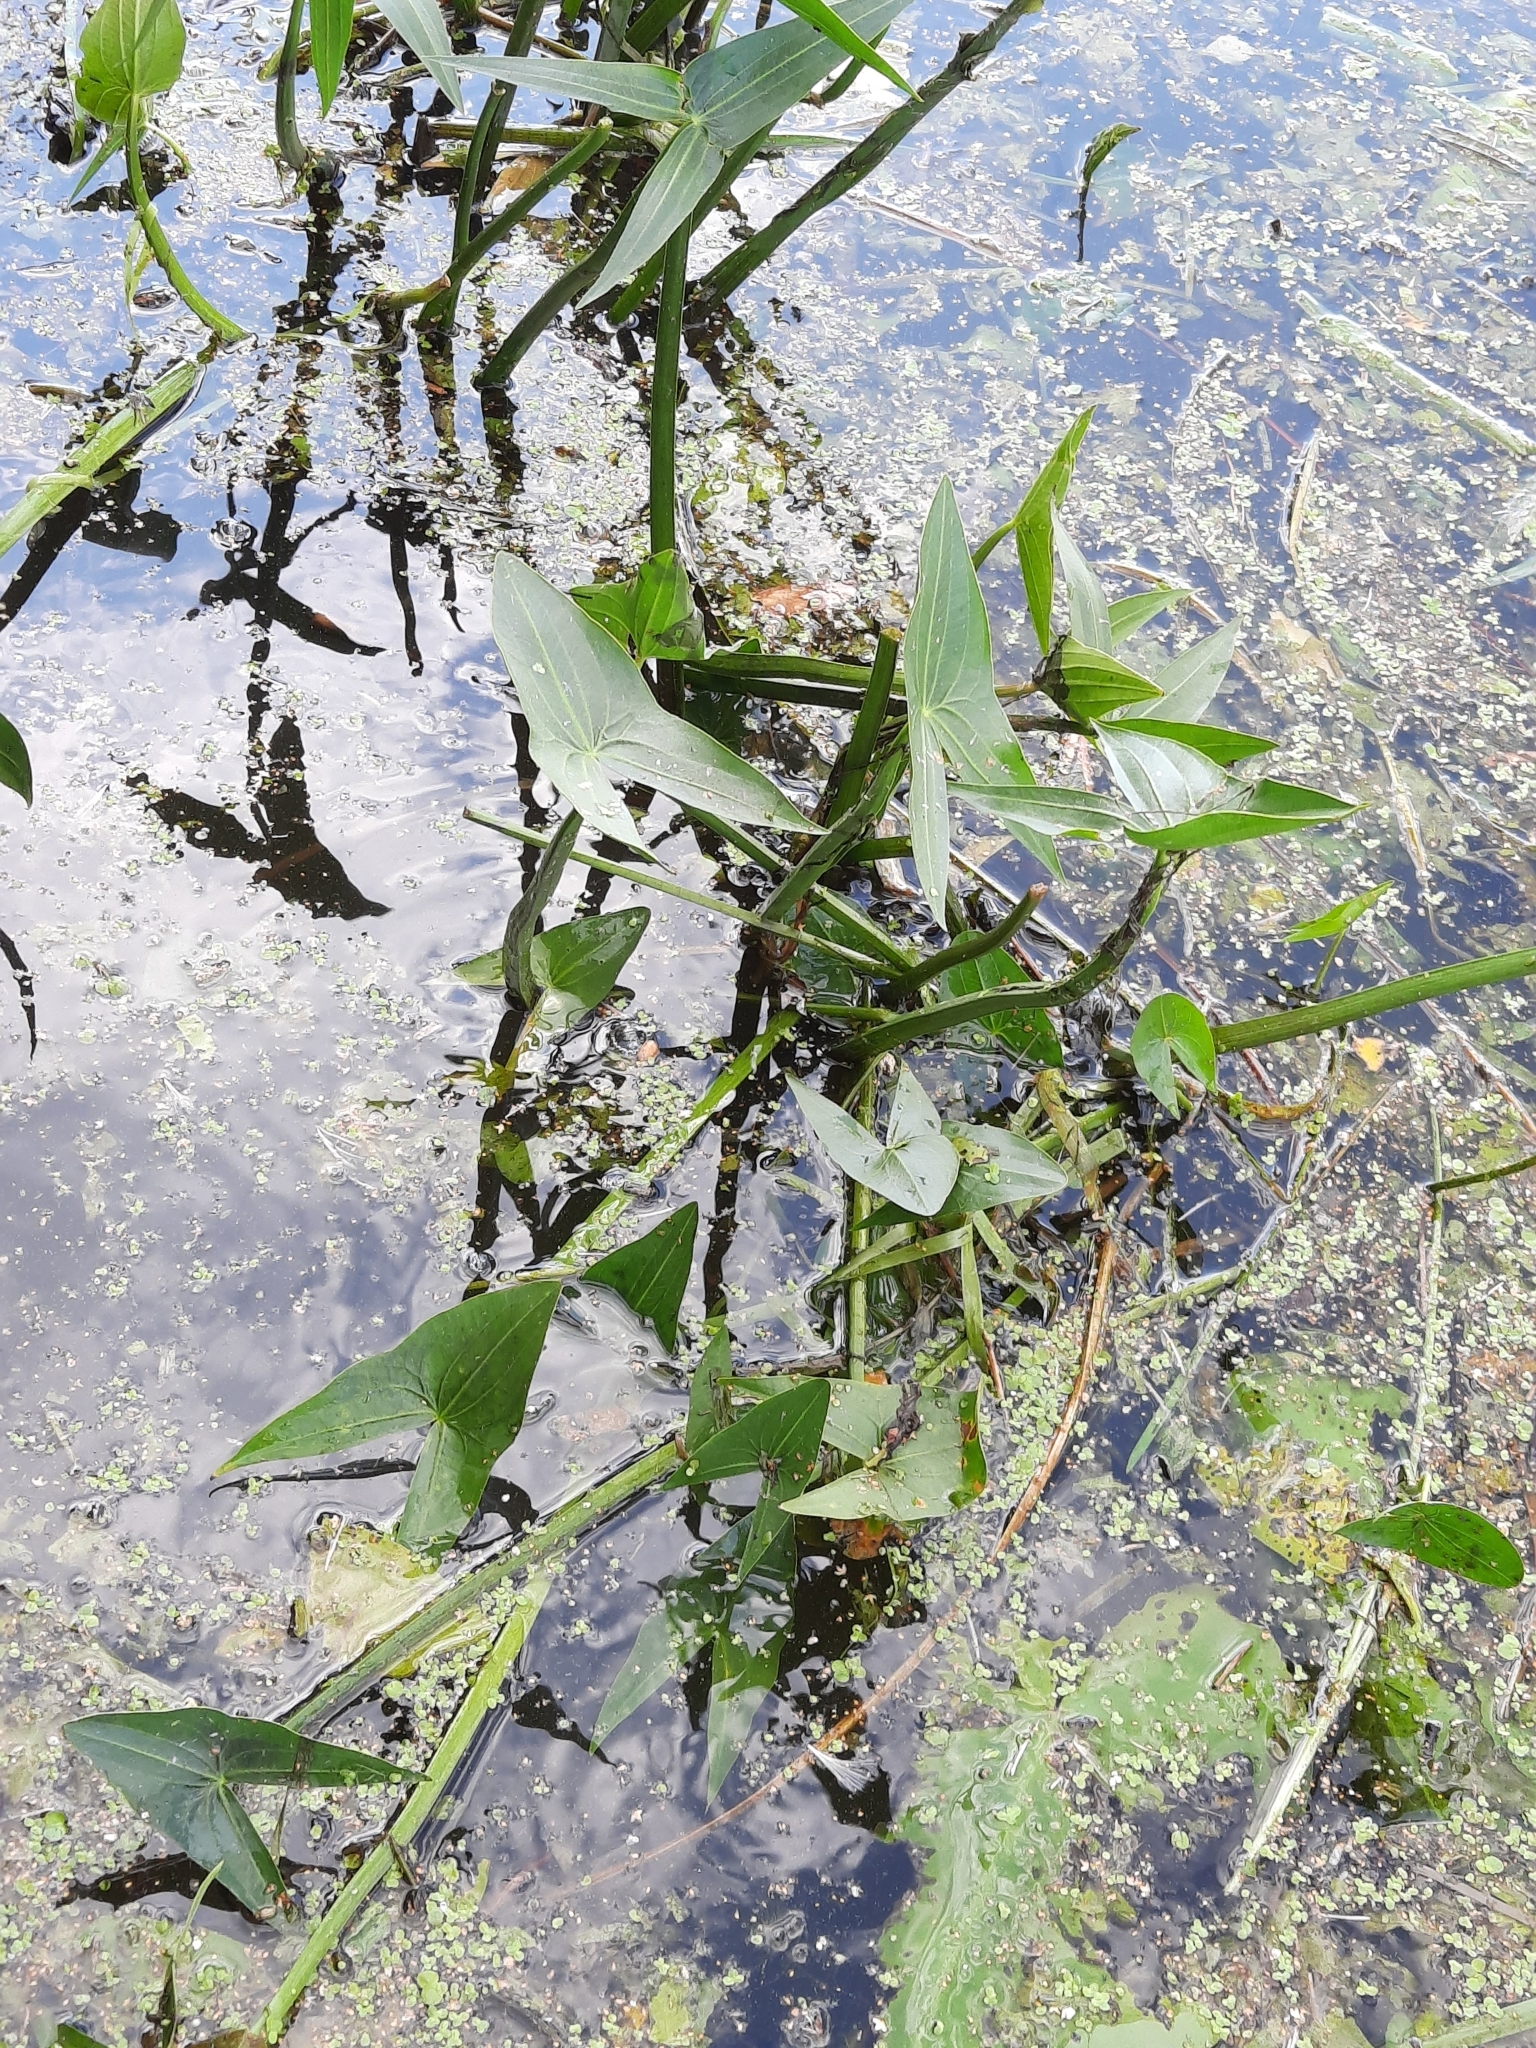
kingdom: Plantae
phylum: Tracheophyta
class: Liliopsida
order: Alismatales
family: Alismataceae
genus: Sagittaria
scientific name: Sagittaria sagittifolia
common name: Arrowhead
